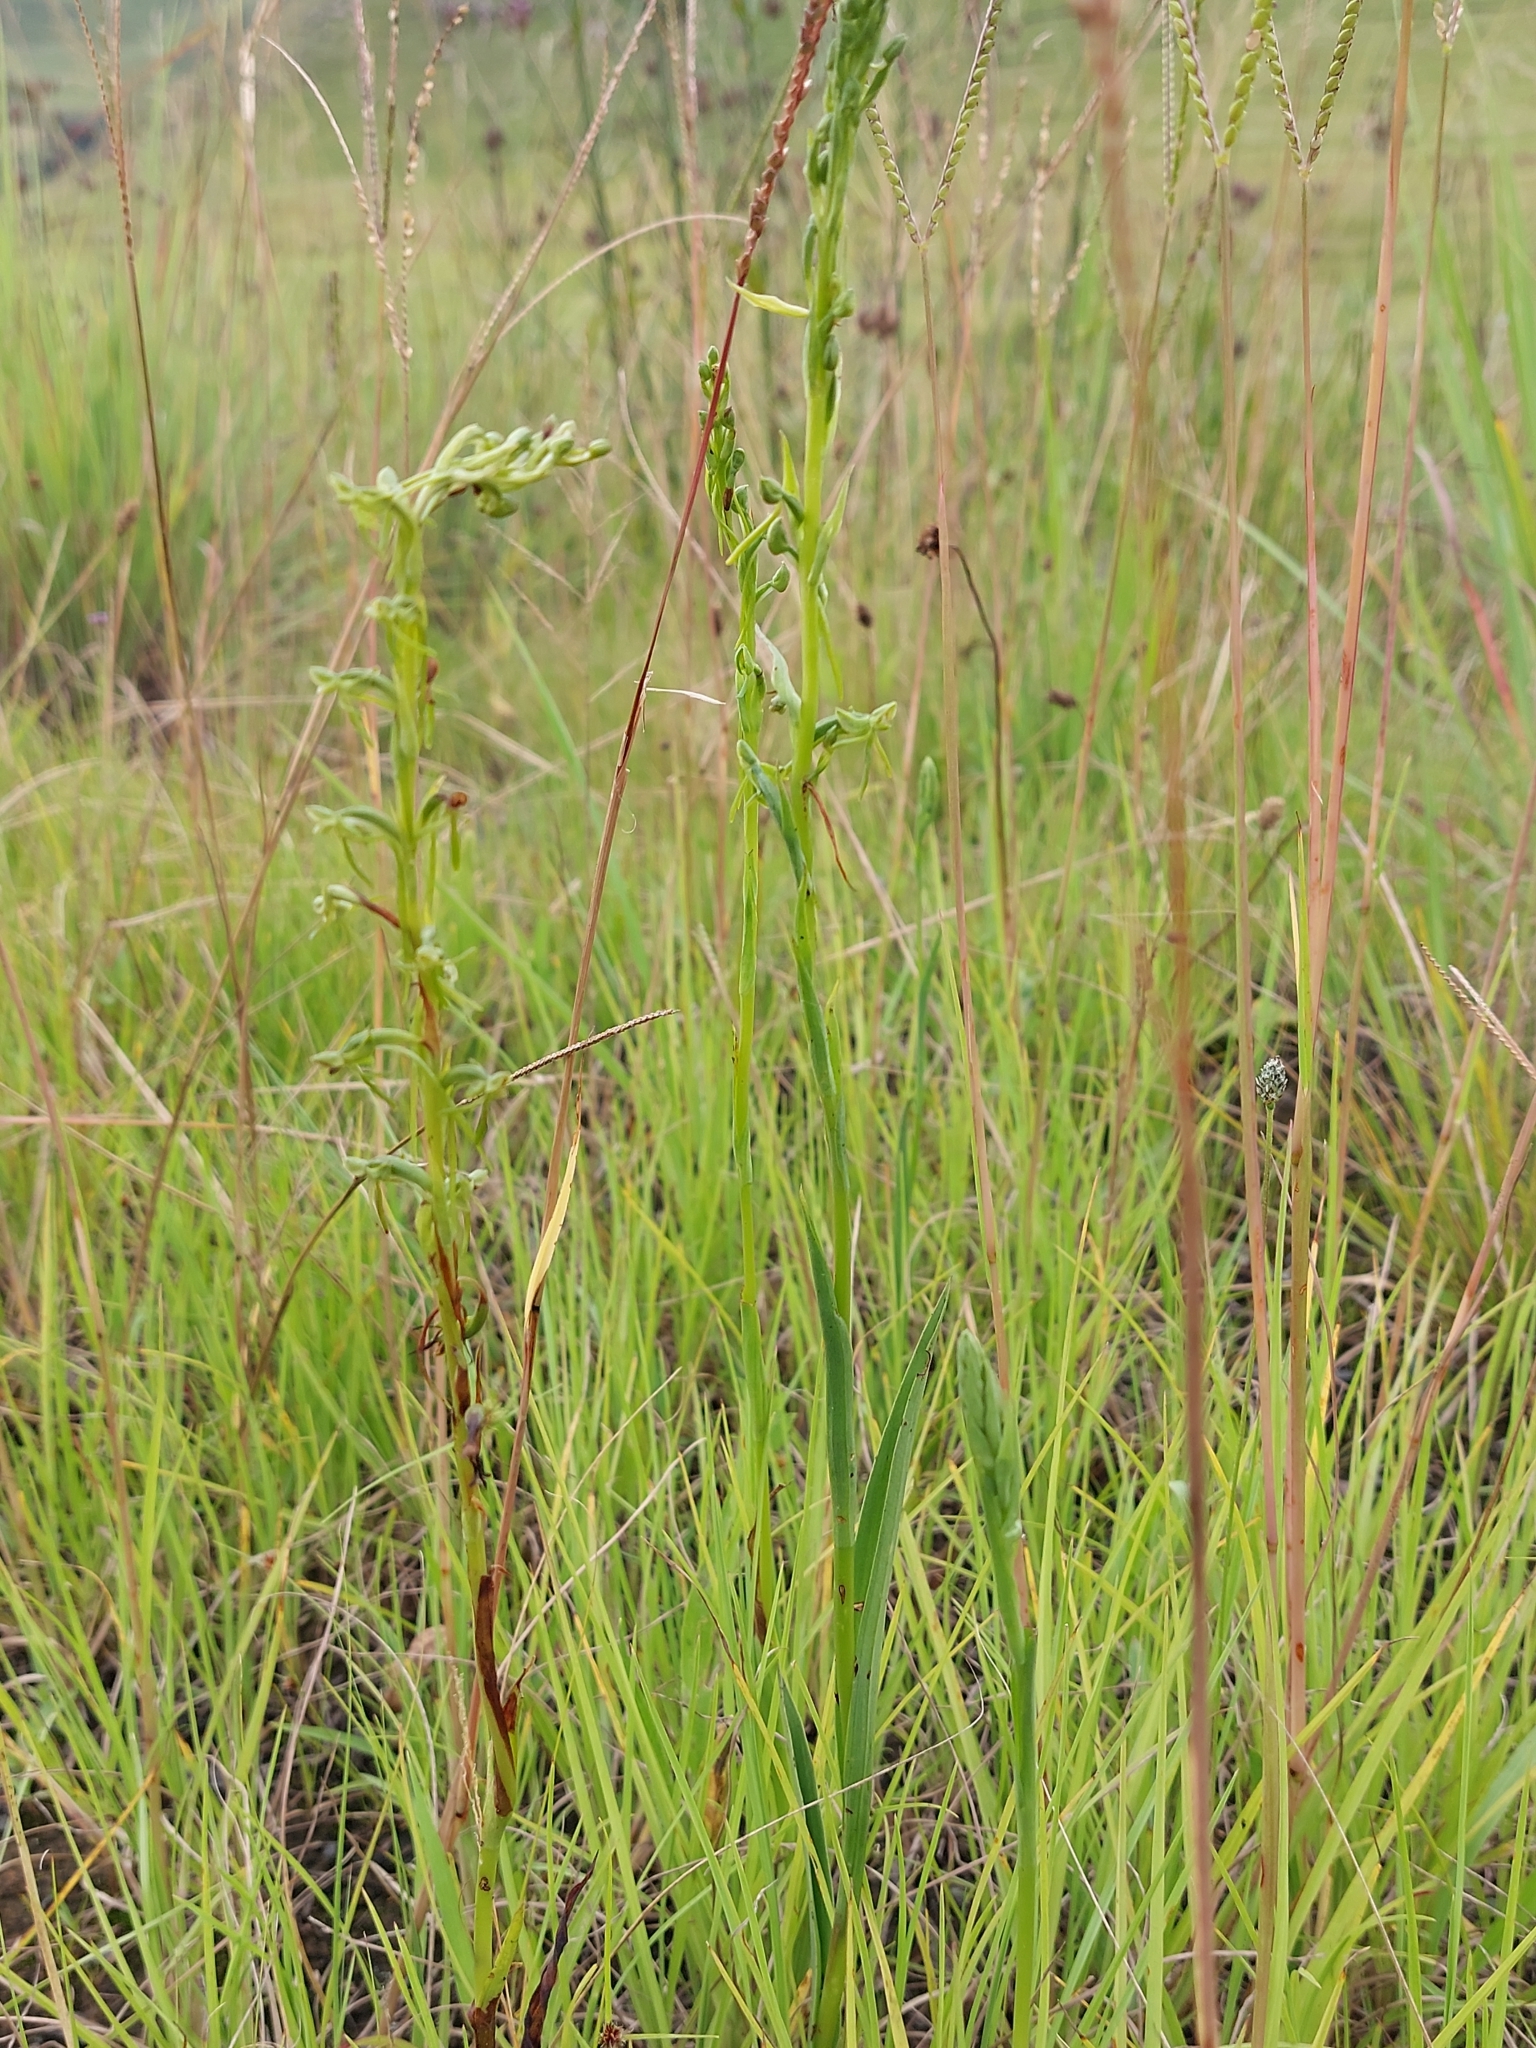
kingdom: Plantae
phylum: Tracheophyta
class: Liliopsida
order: Asparagales
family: Orchidaceae
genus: Habenaria
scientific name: Habenaria humilior
